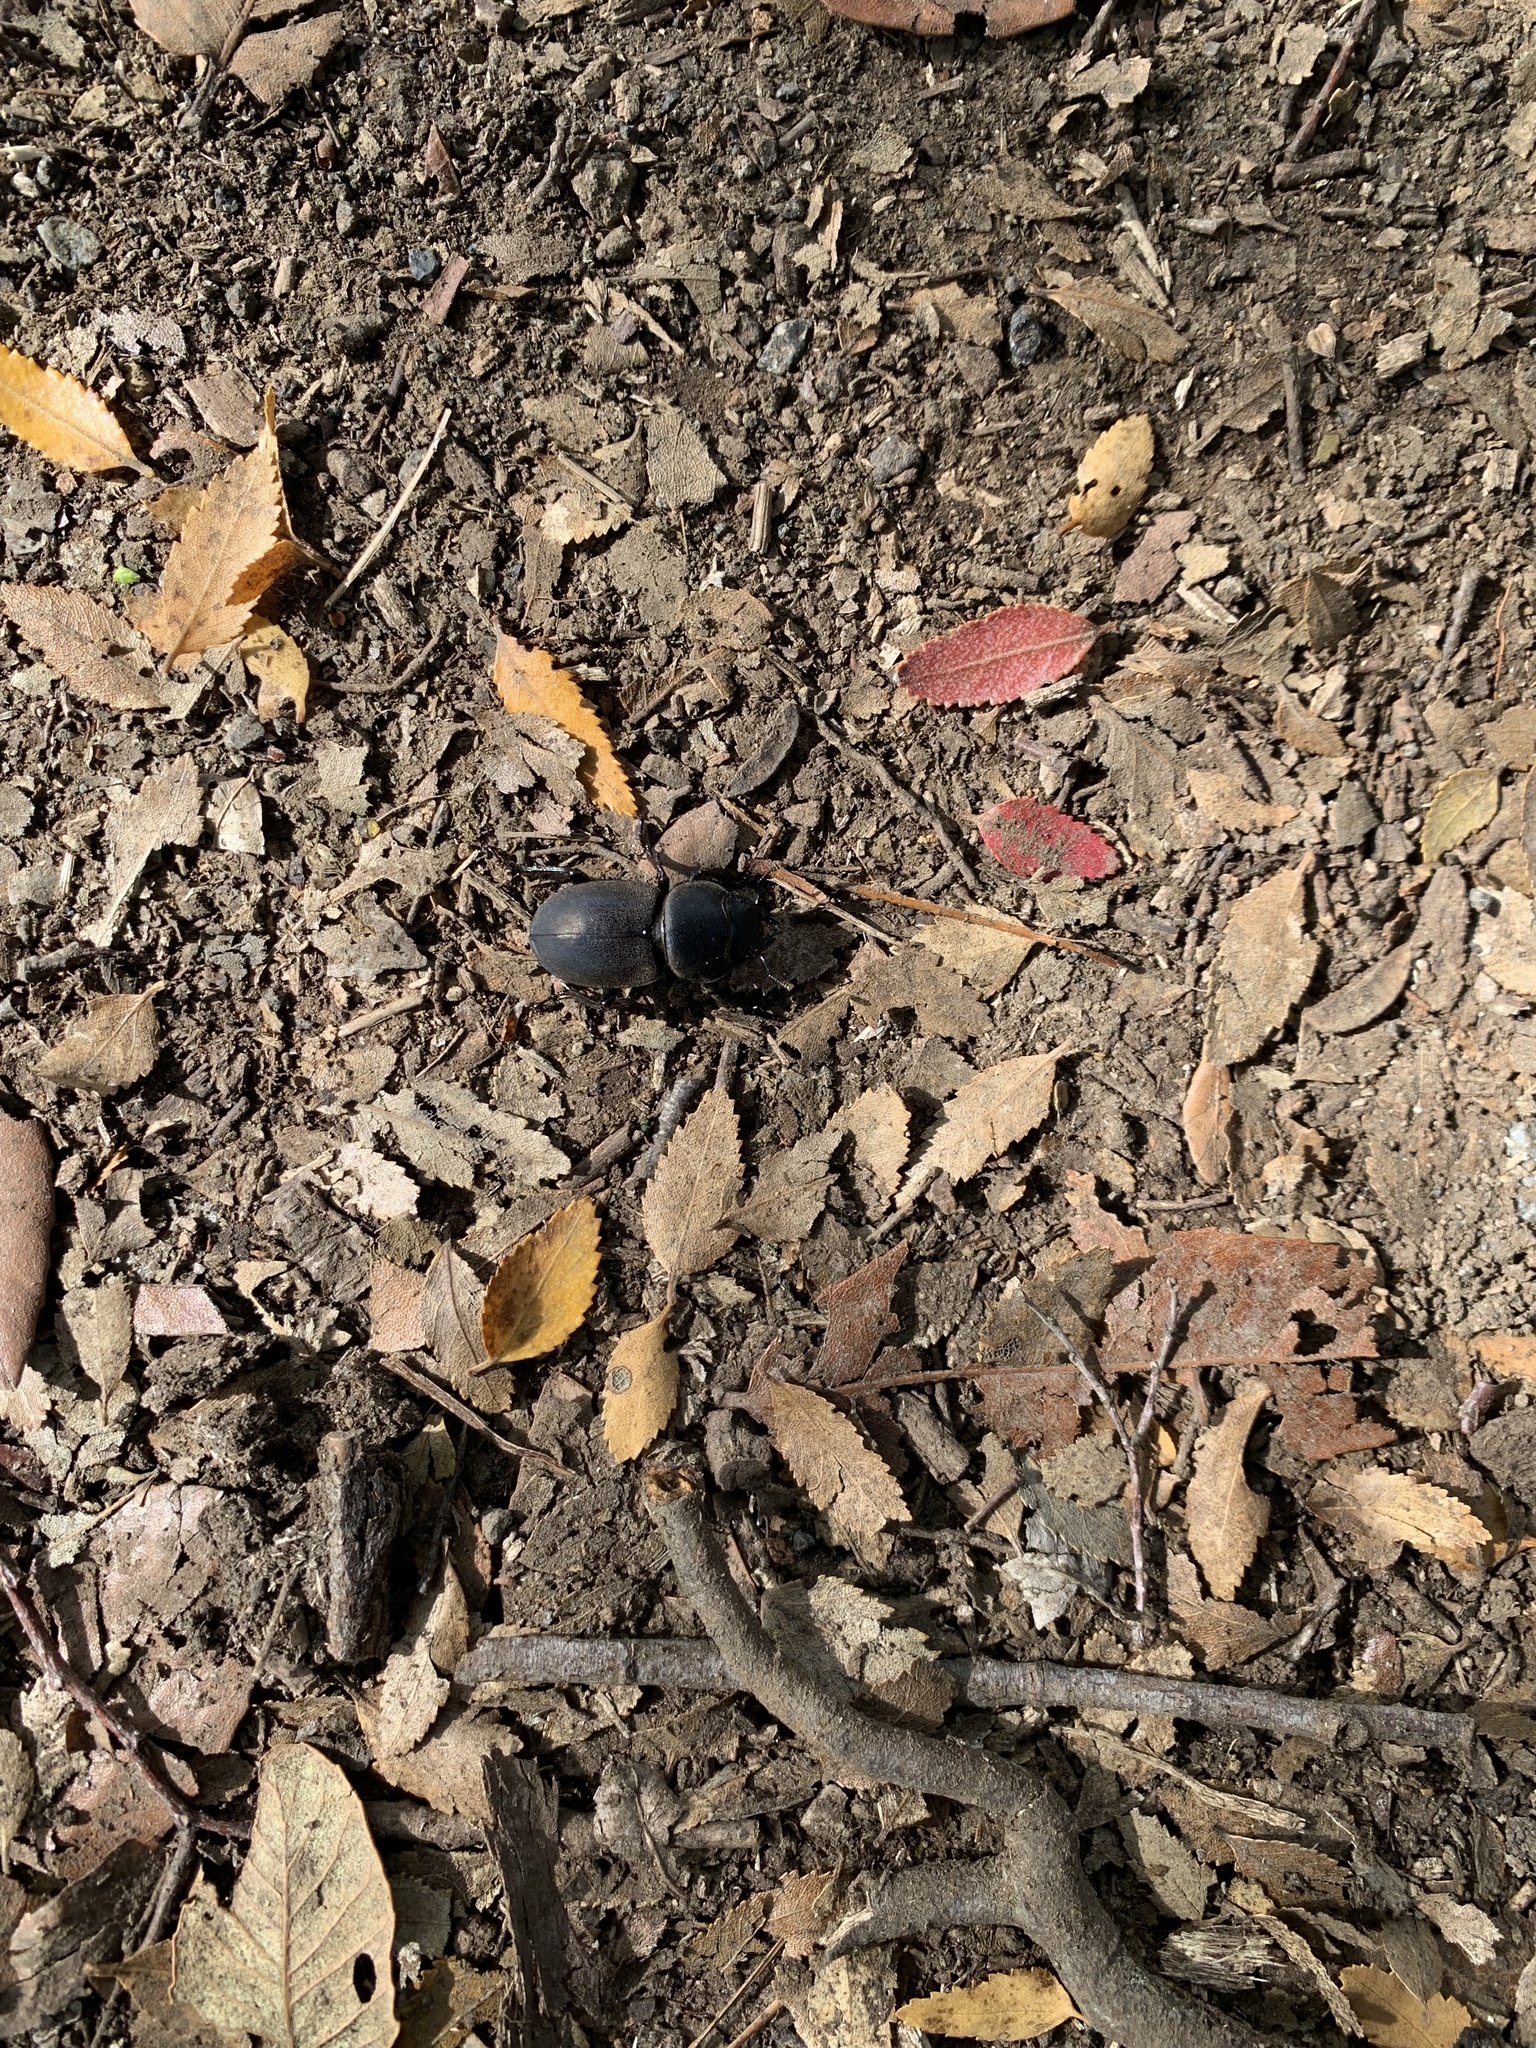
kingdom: Animalia
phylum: Arthropoda
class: Insecta
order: Coleoptera
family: Lucanidae
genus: Apterodorcus
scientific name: Apterodorcus bacchus
